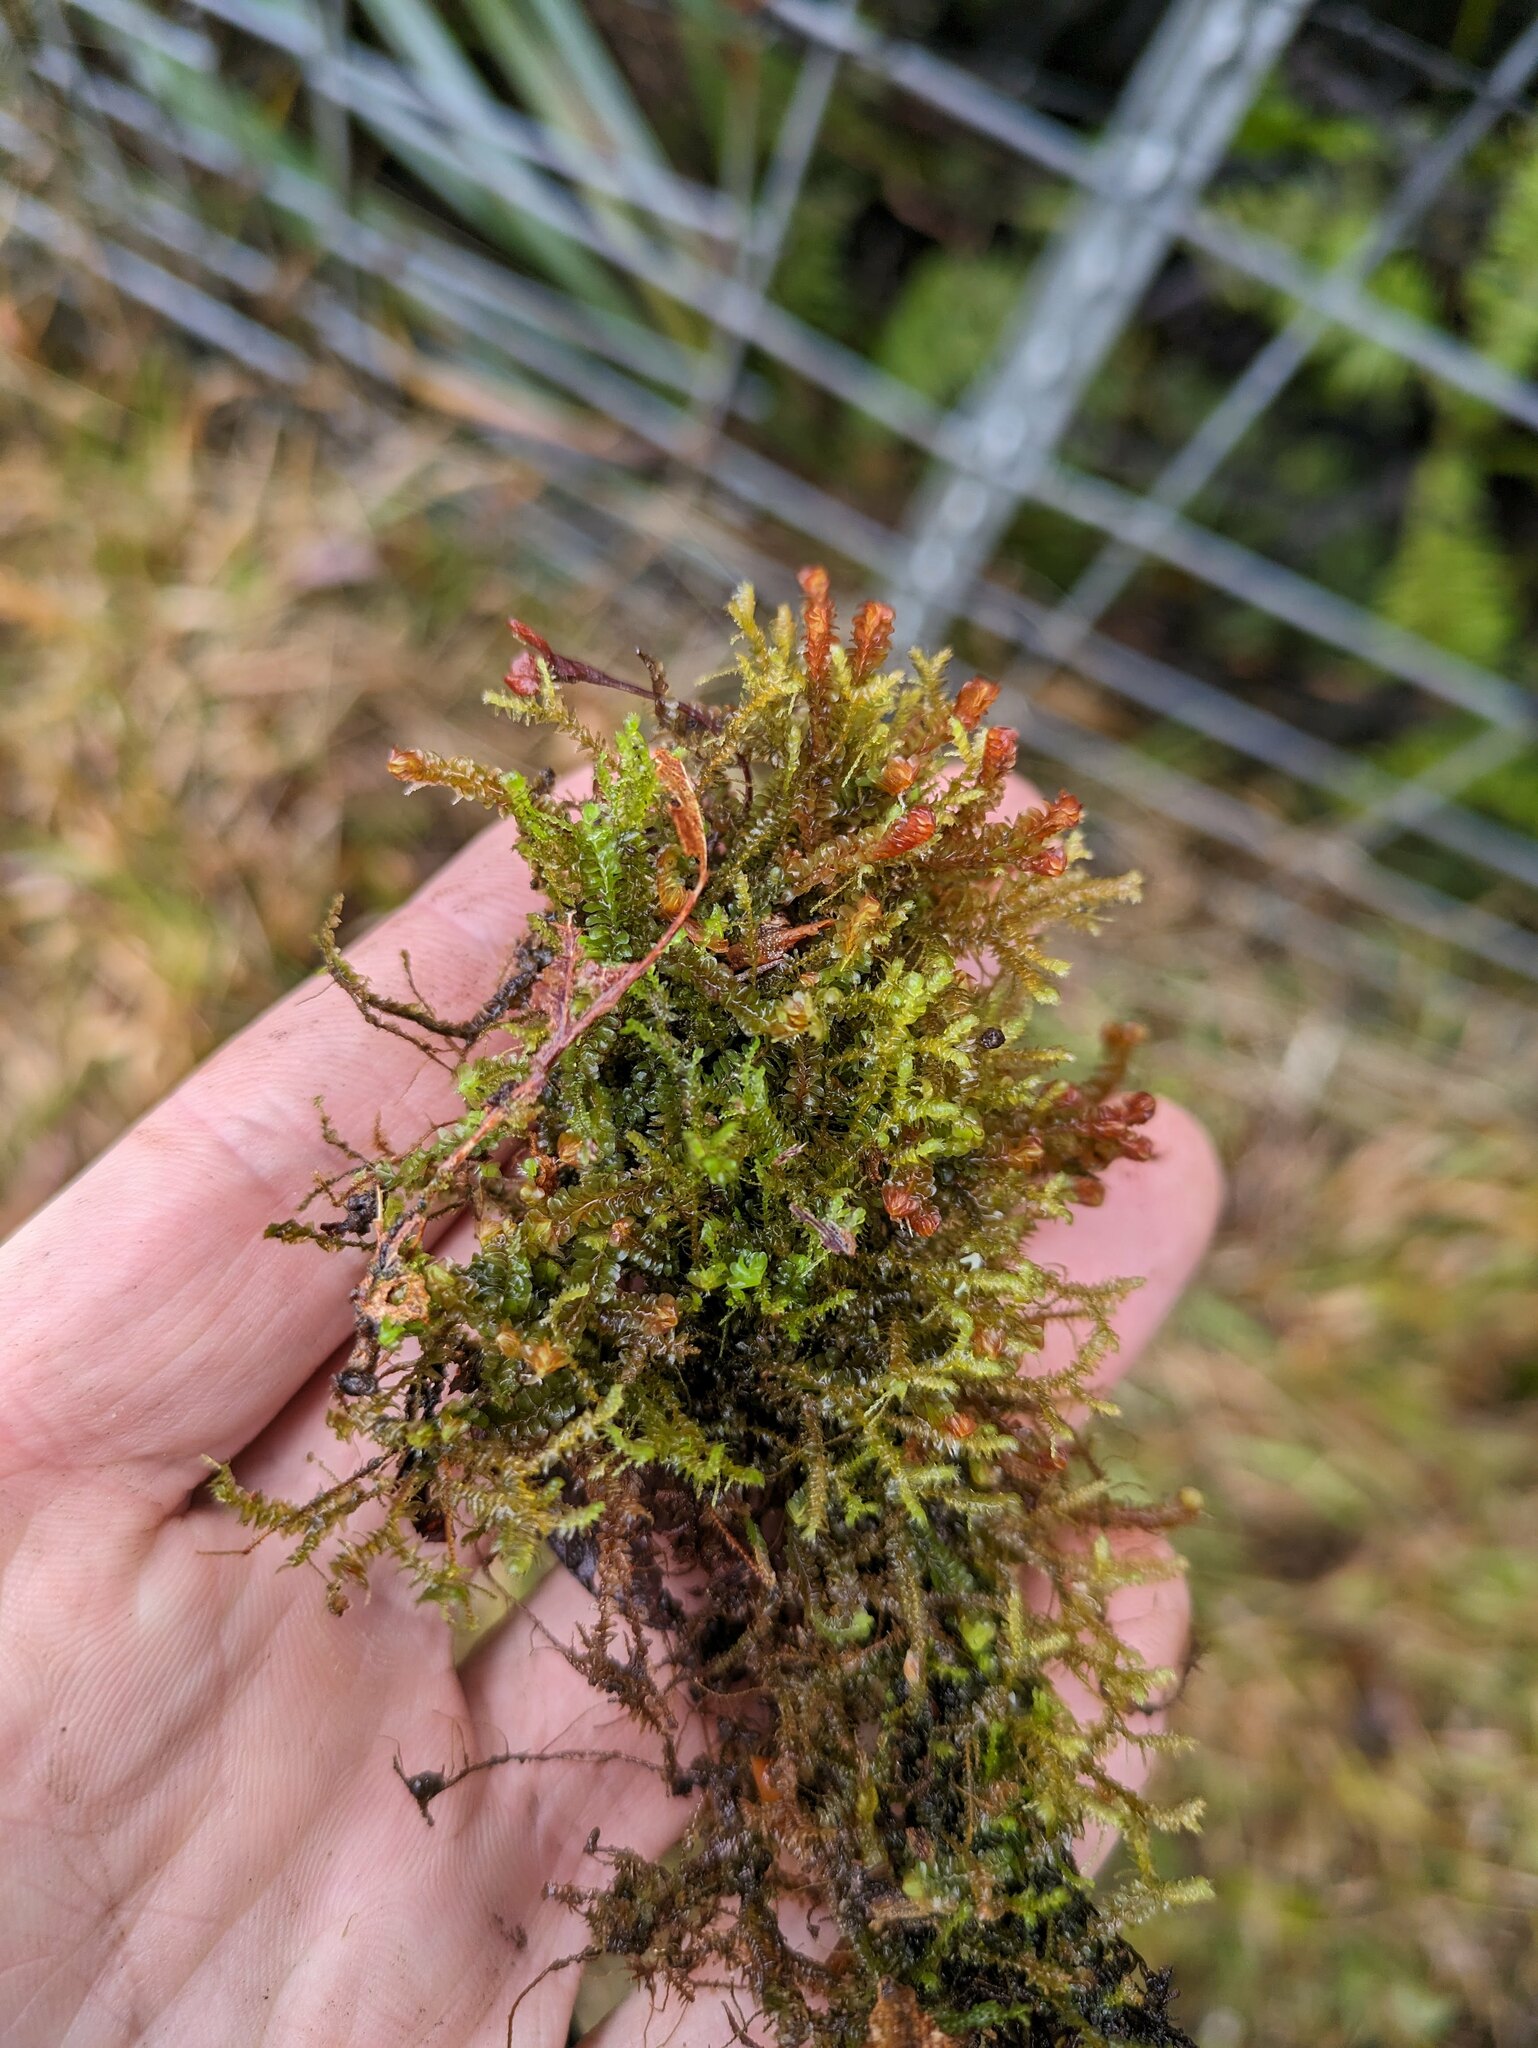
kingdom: Plantae
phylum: Marchantiophyta
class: Jungermanniopsida
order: Jungermanniales
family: Adelanthaceae
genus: Cuspidatula
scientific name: Cuspidatula robusta
